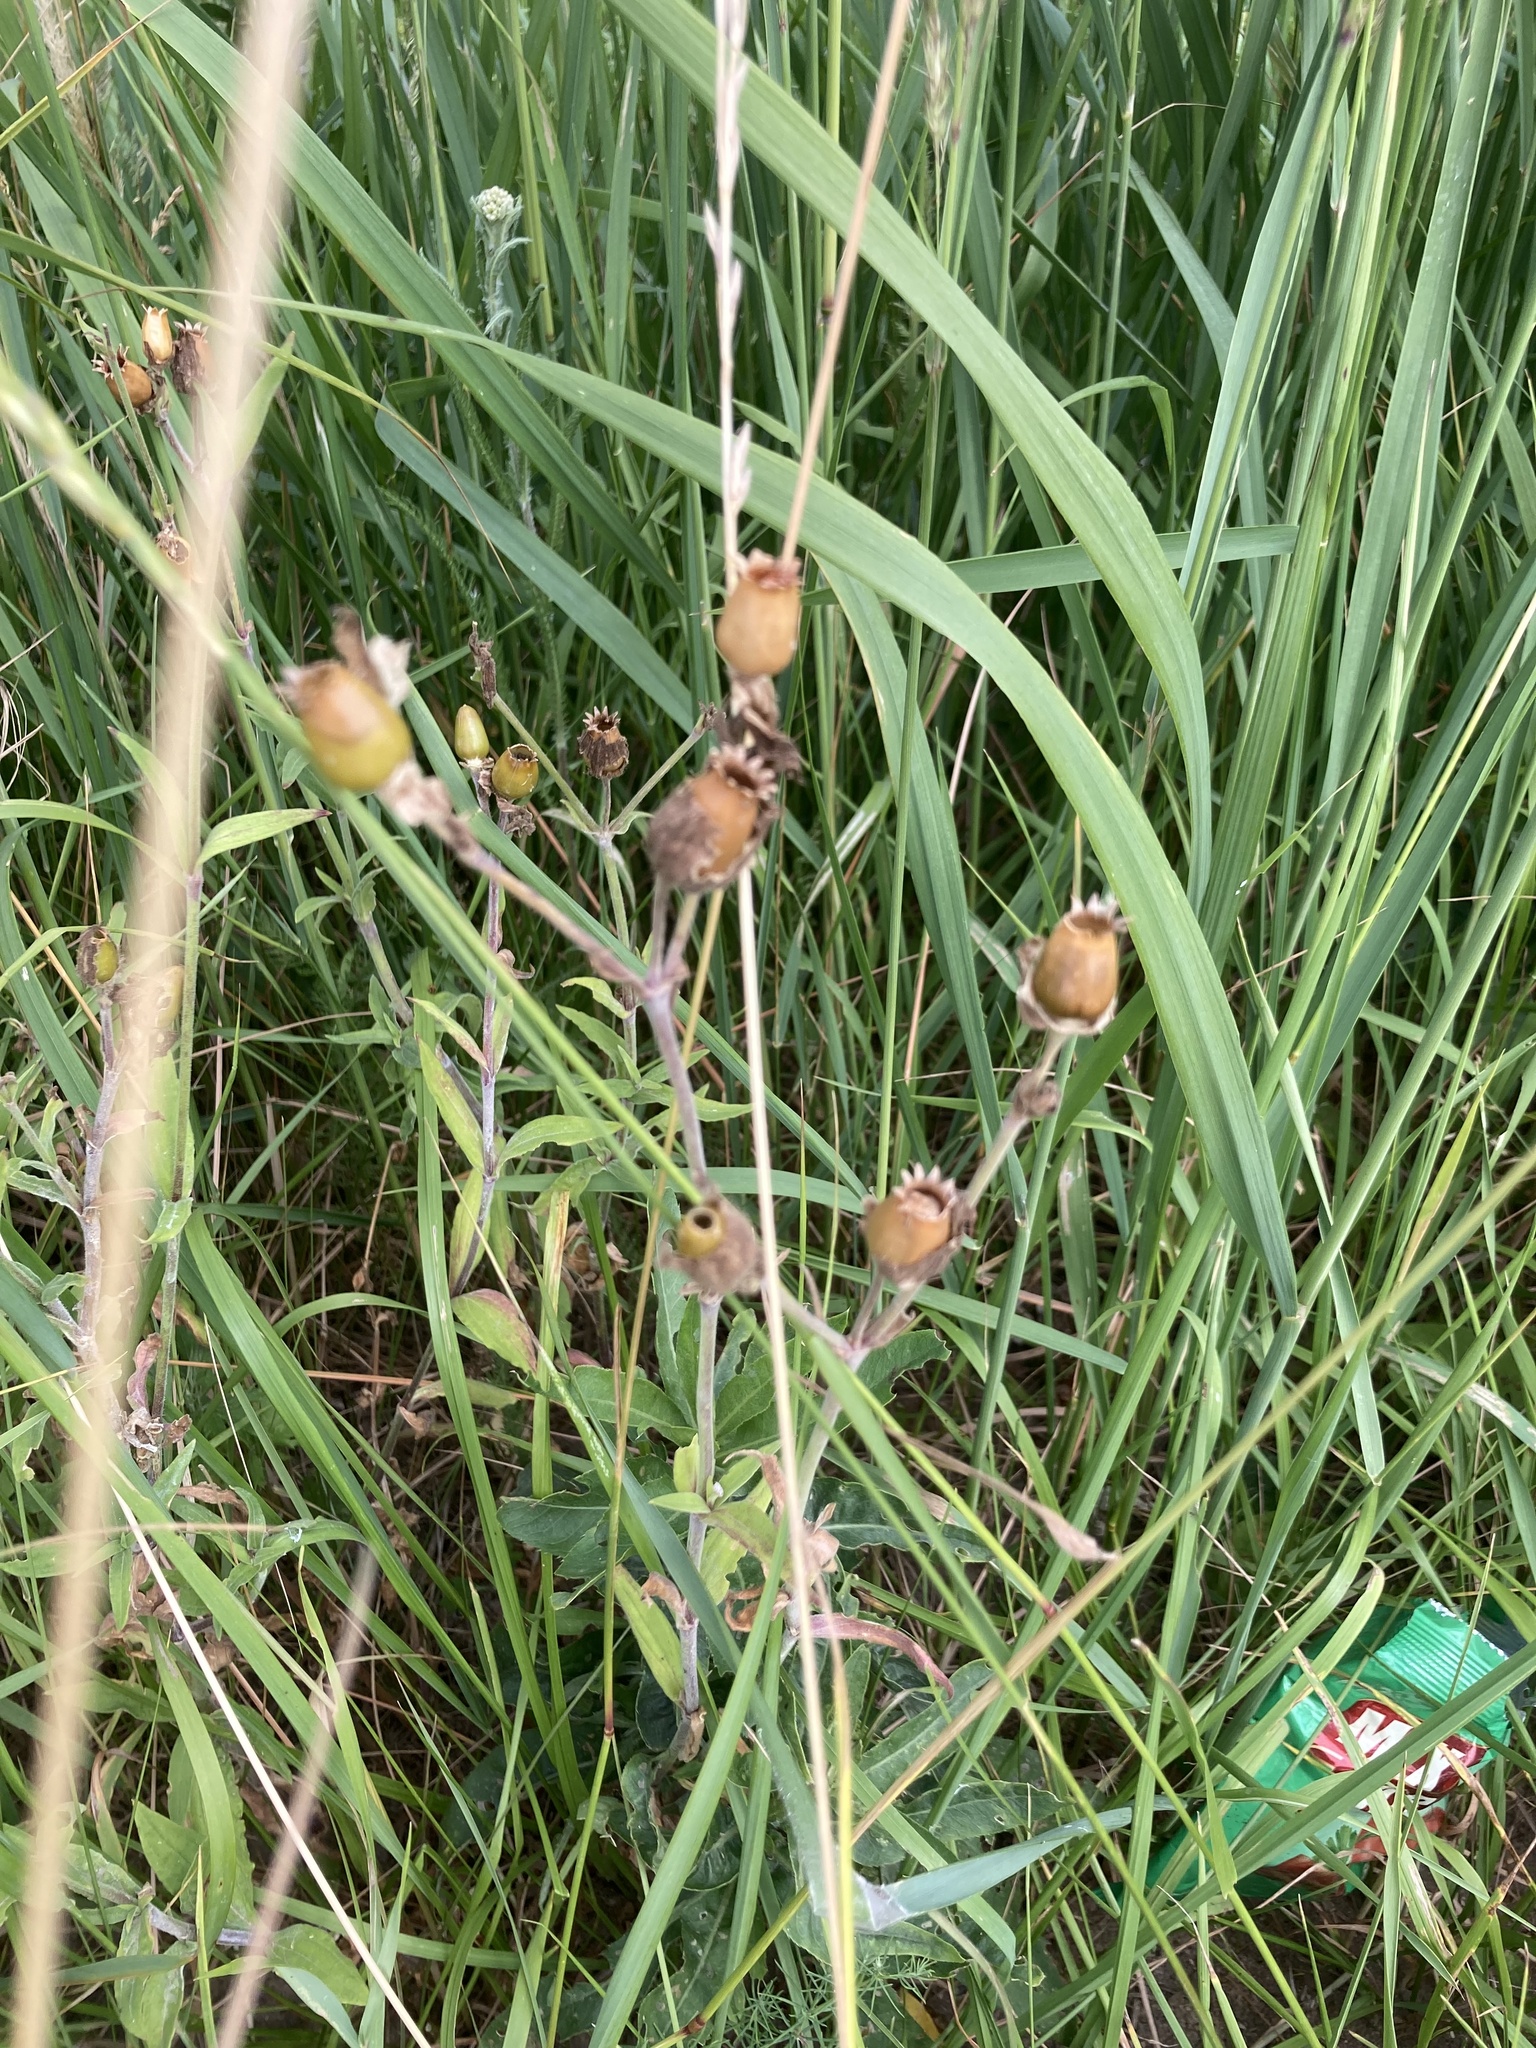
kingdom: Plantae
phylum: Tracheophyta
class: Magnoliopsida
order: Caryophyllales
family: Caryophyllaceae
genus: Silene
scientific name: Silene latifolia
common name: White campion
